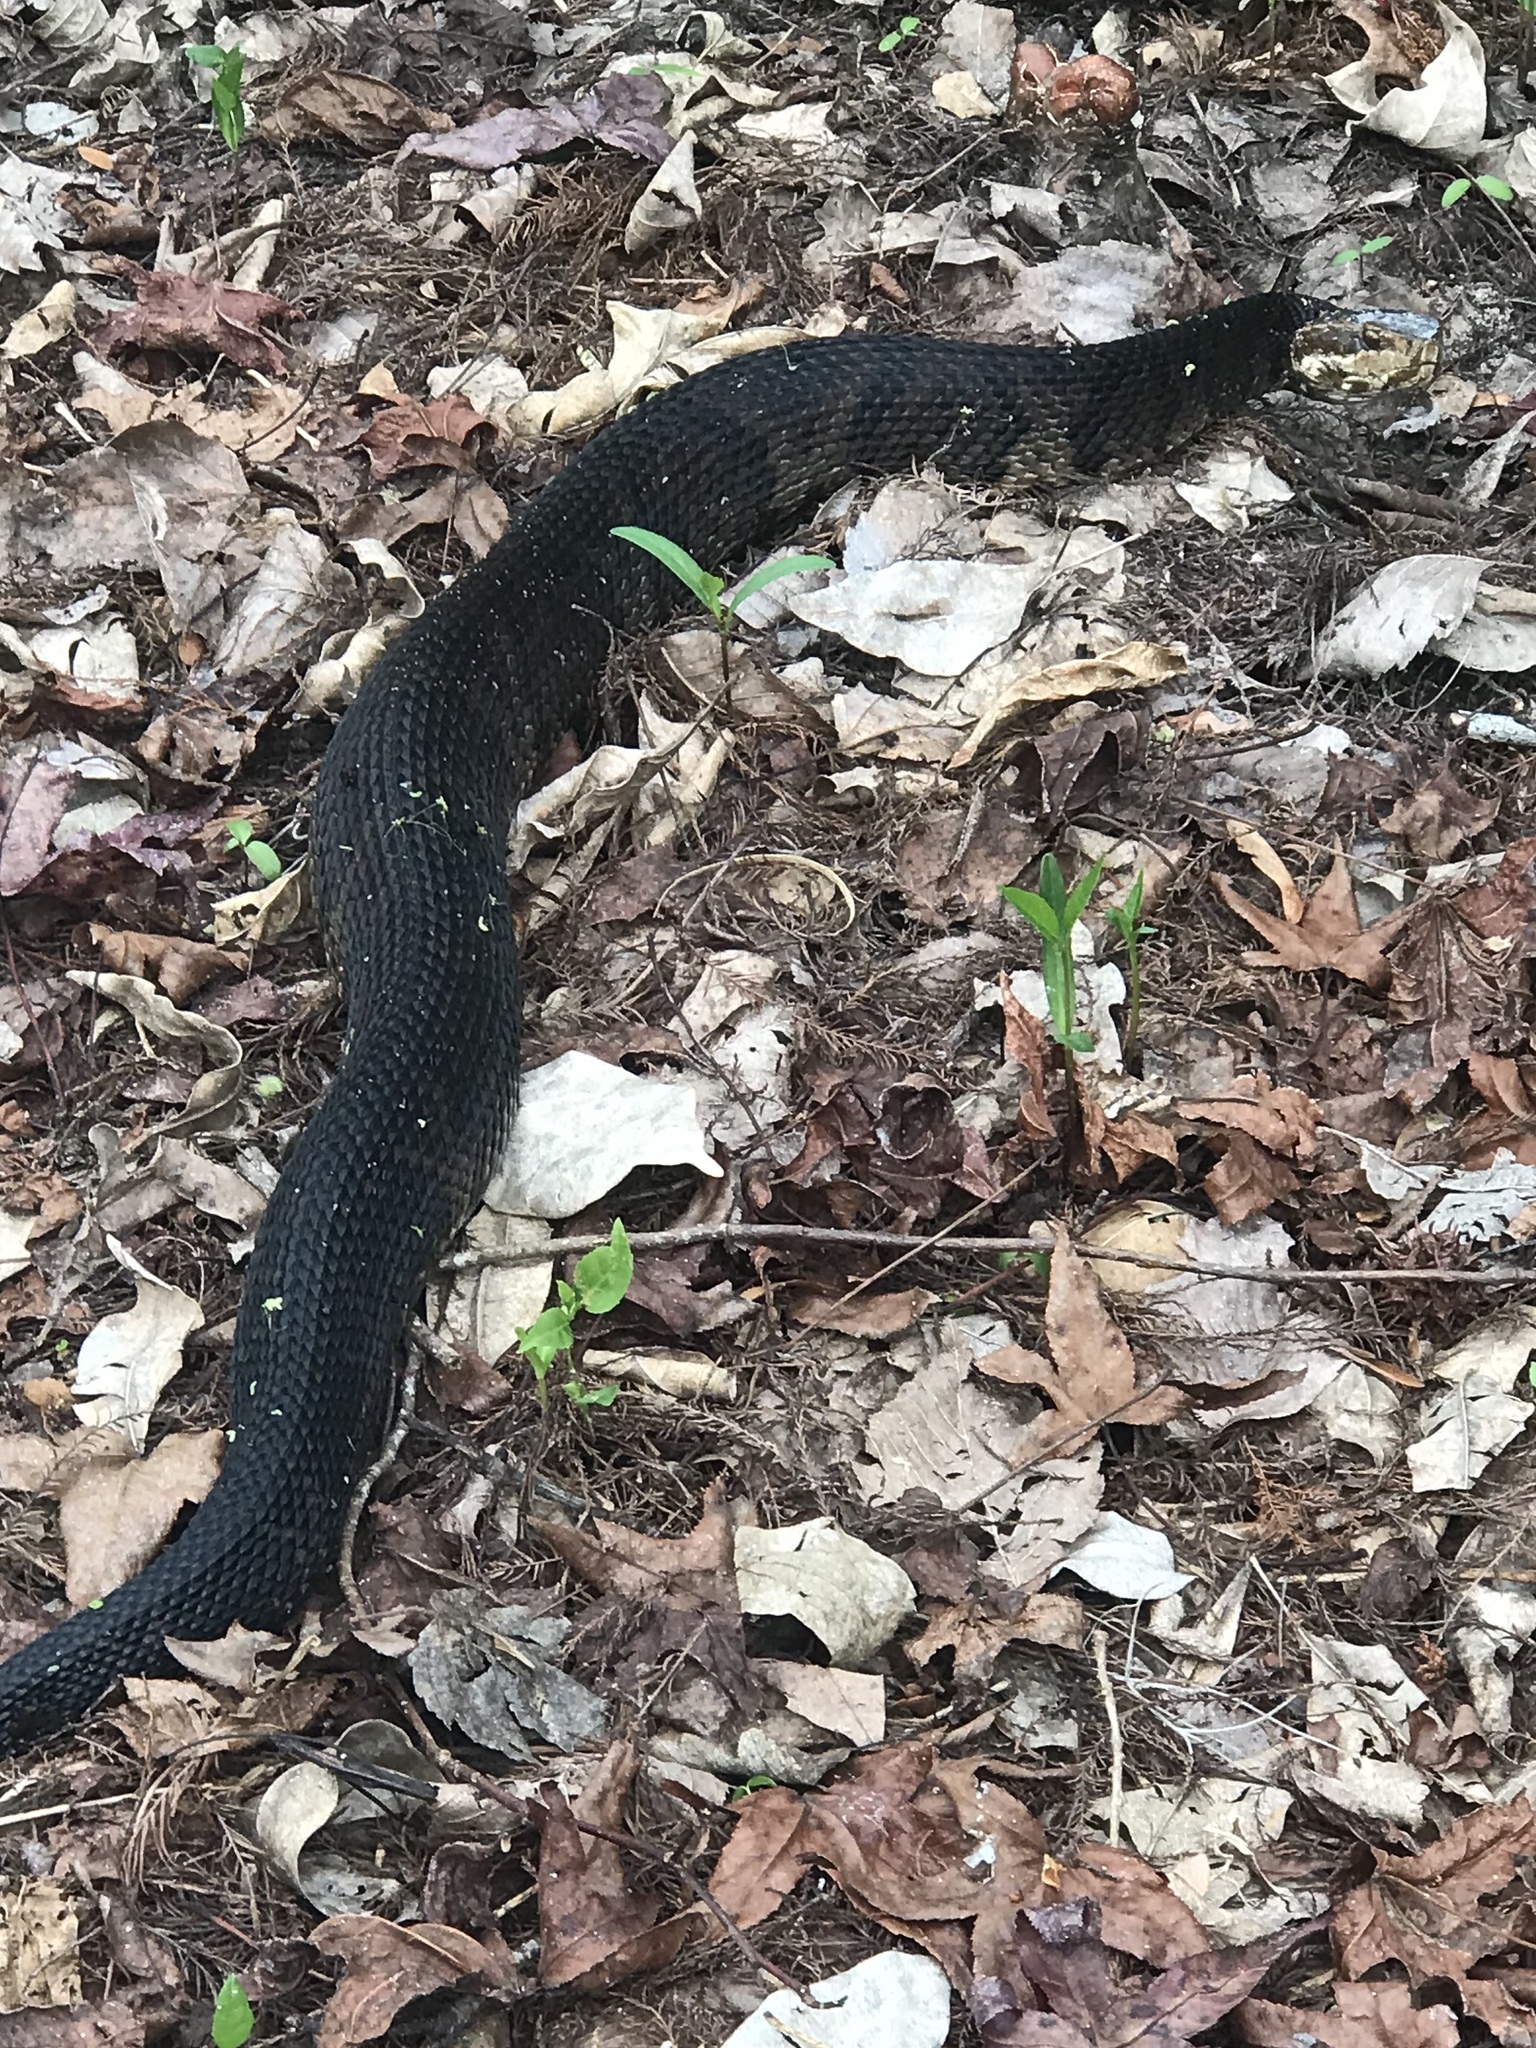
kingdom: Animalia
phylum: Chordata
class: Squamata
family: Viperidae
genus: Agkistrodon
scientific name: Agkistrodon conanti
